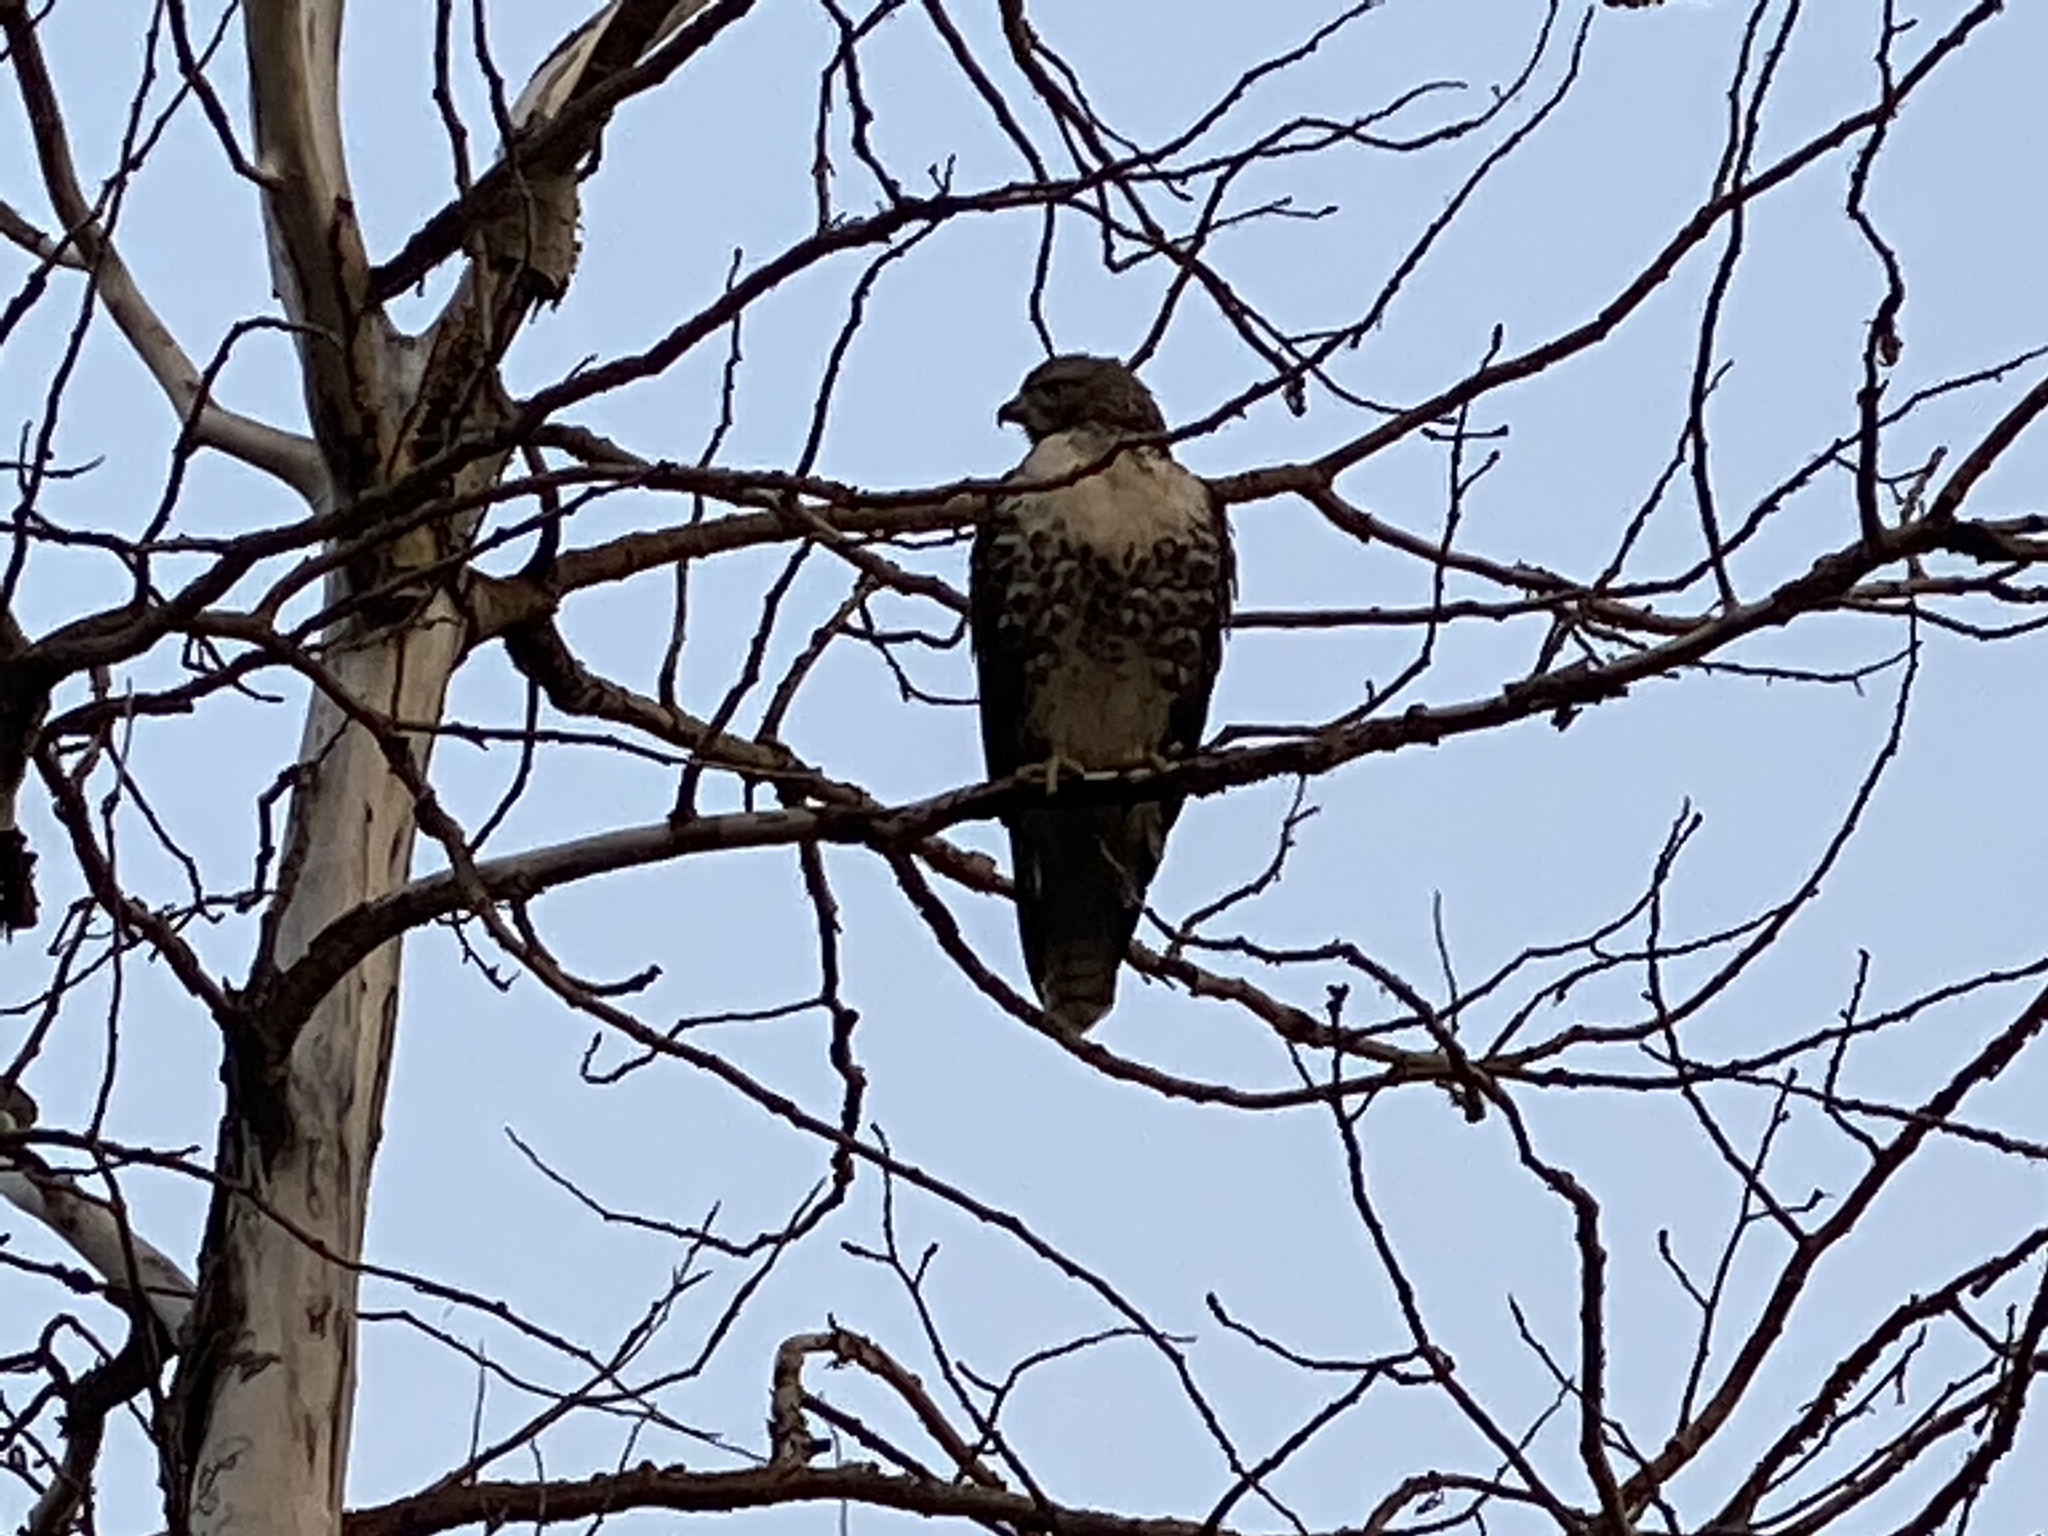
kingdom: Animalia
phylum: Chordata
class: Aves
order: Accipitriformes
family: Accipitridae
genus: Buteo
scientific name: Buteo jamaicensis
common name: Red-tailed hawk
